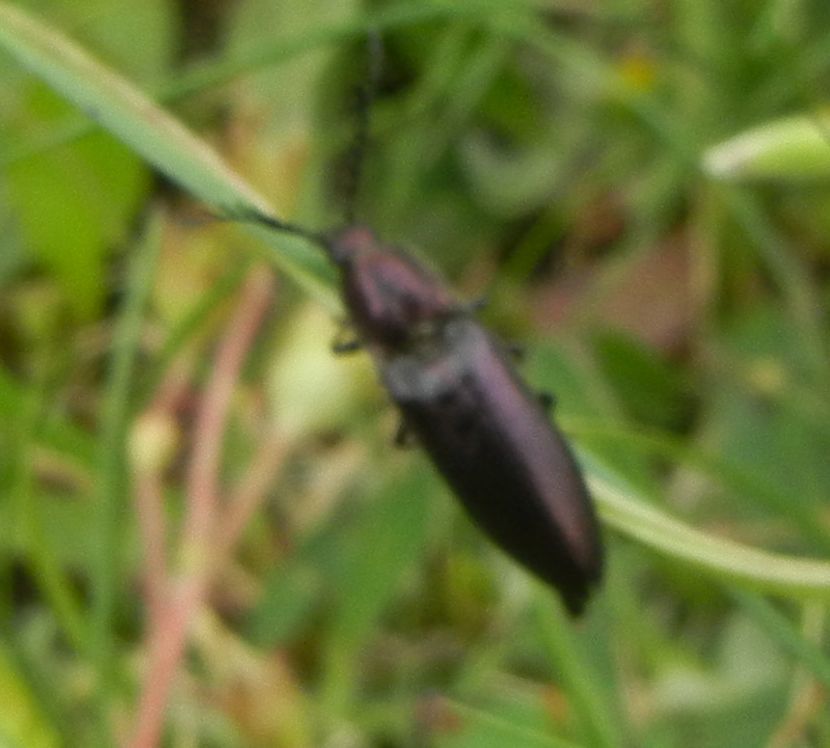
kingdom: Animalia
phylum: Arthropoda
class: Insecta
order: Coleoptera
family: Elateridae
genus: Ctenicera
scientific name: Ctenicera cuprea
